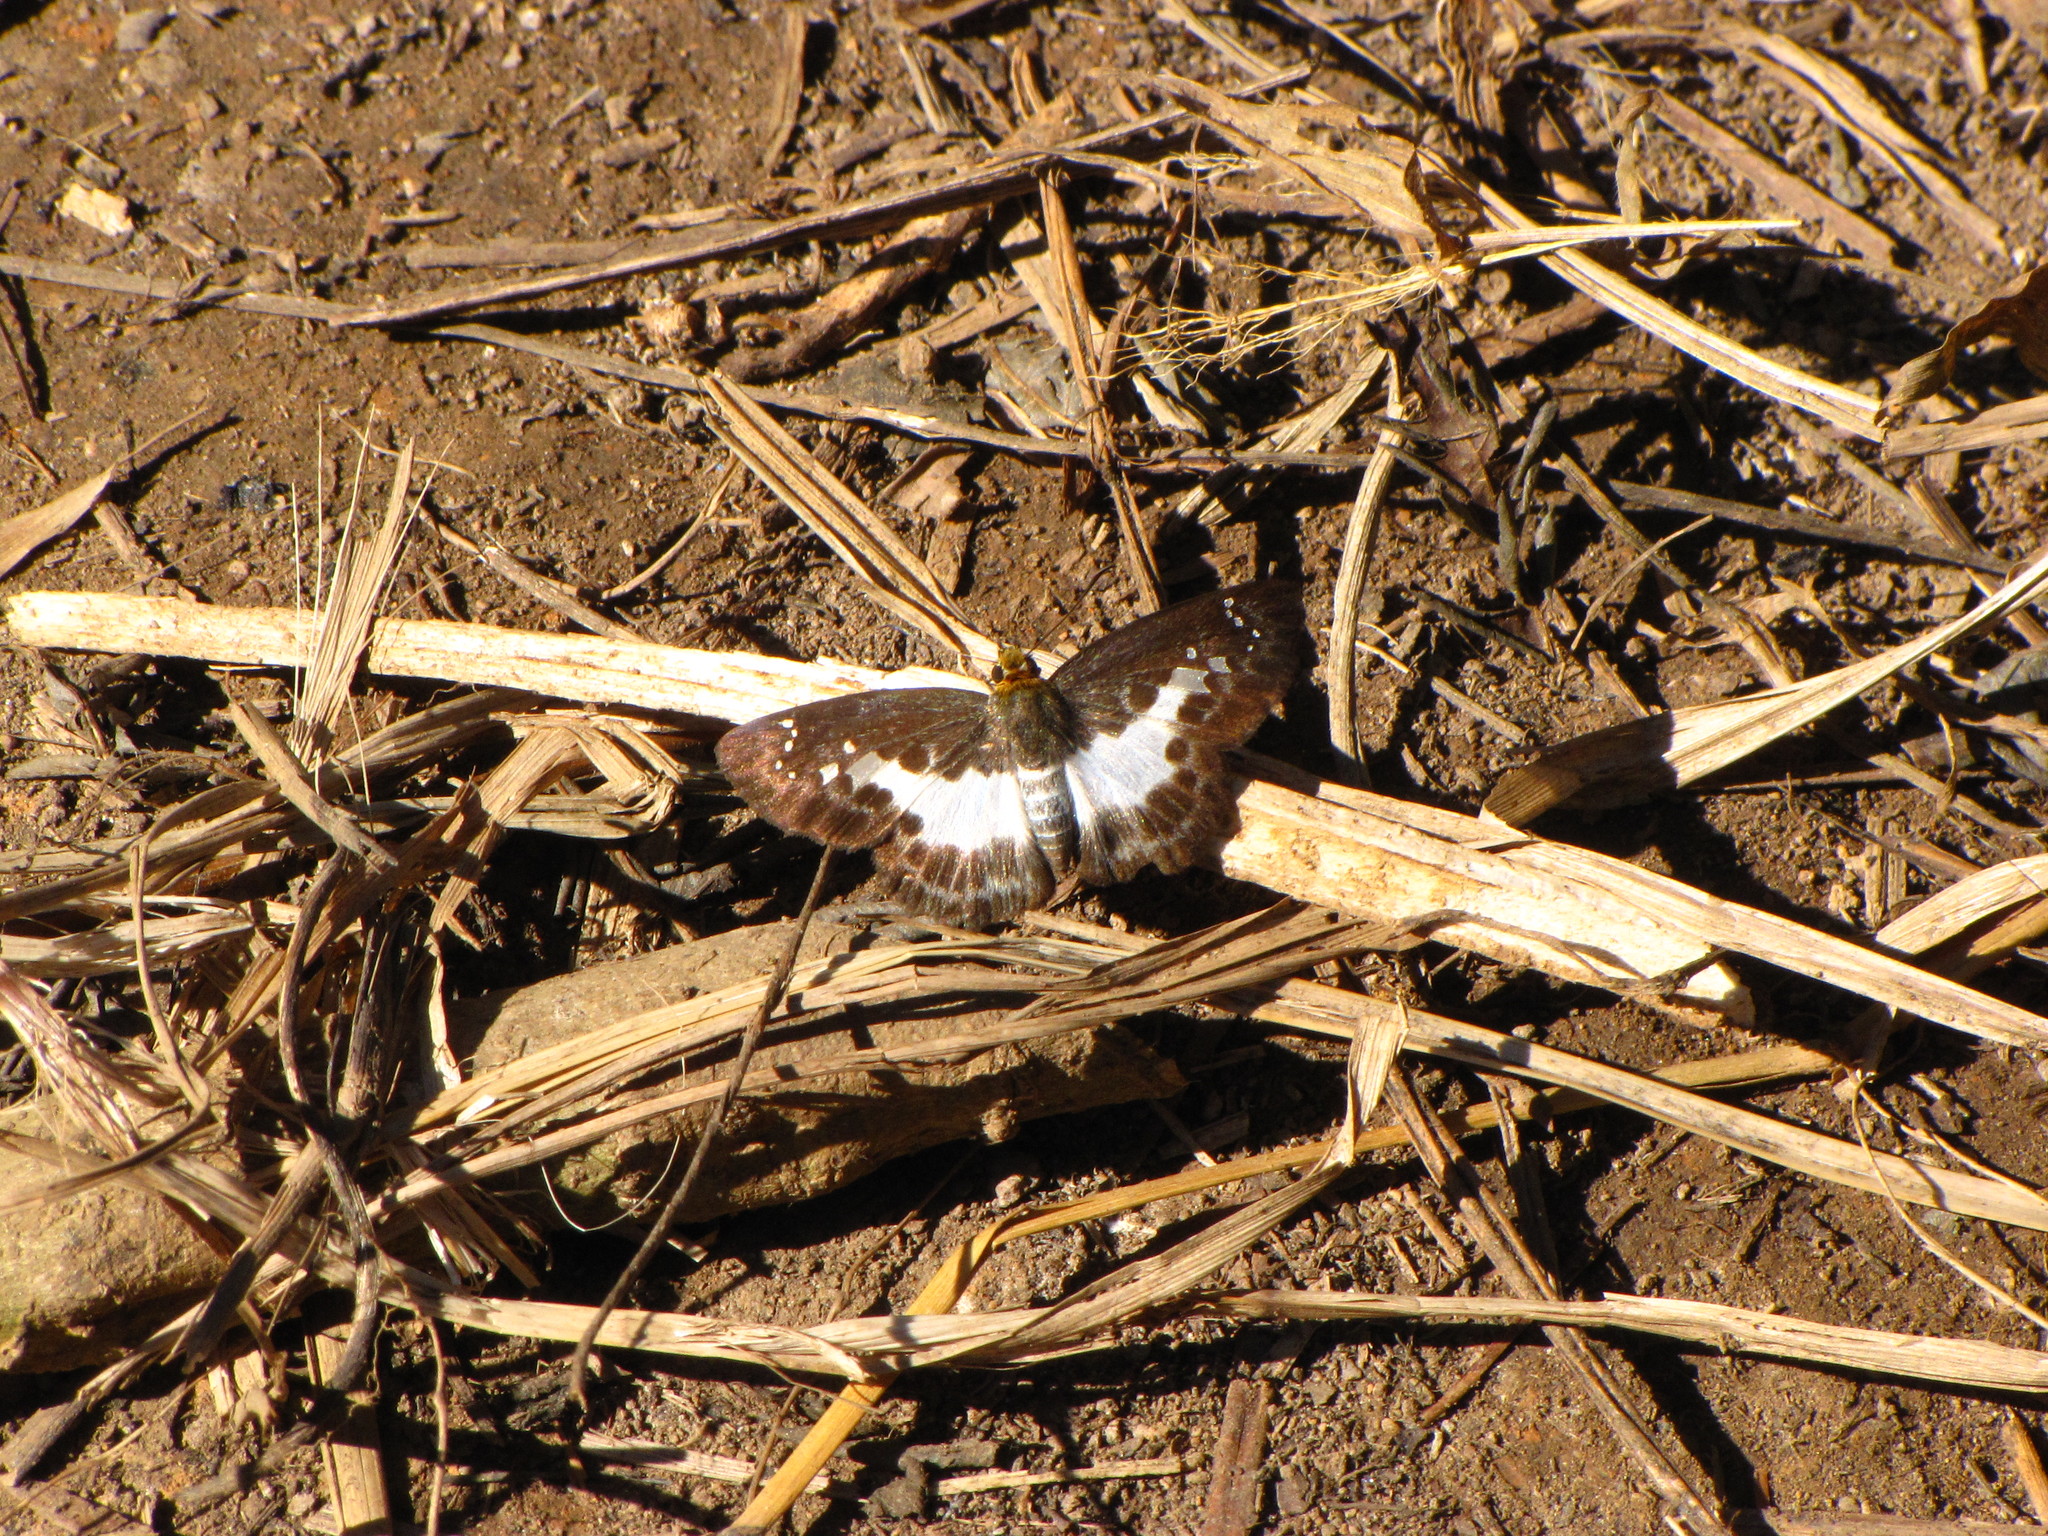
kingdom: Animalia
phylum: Arthropoda
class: Insecta
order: Lepidoptera
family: Hesperiidae
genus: Daimio
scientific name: Daimio
